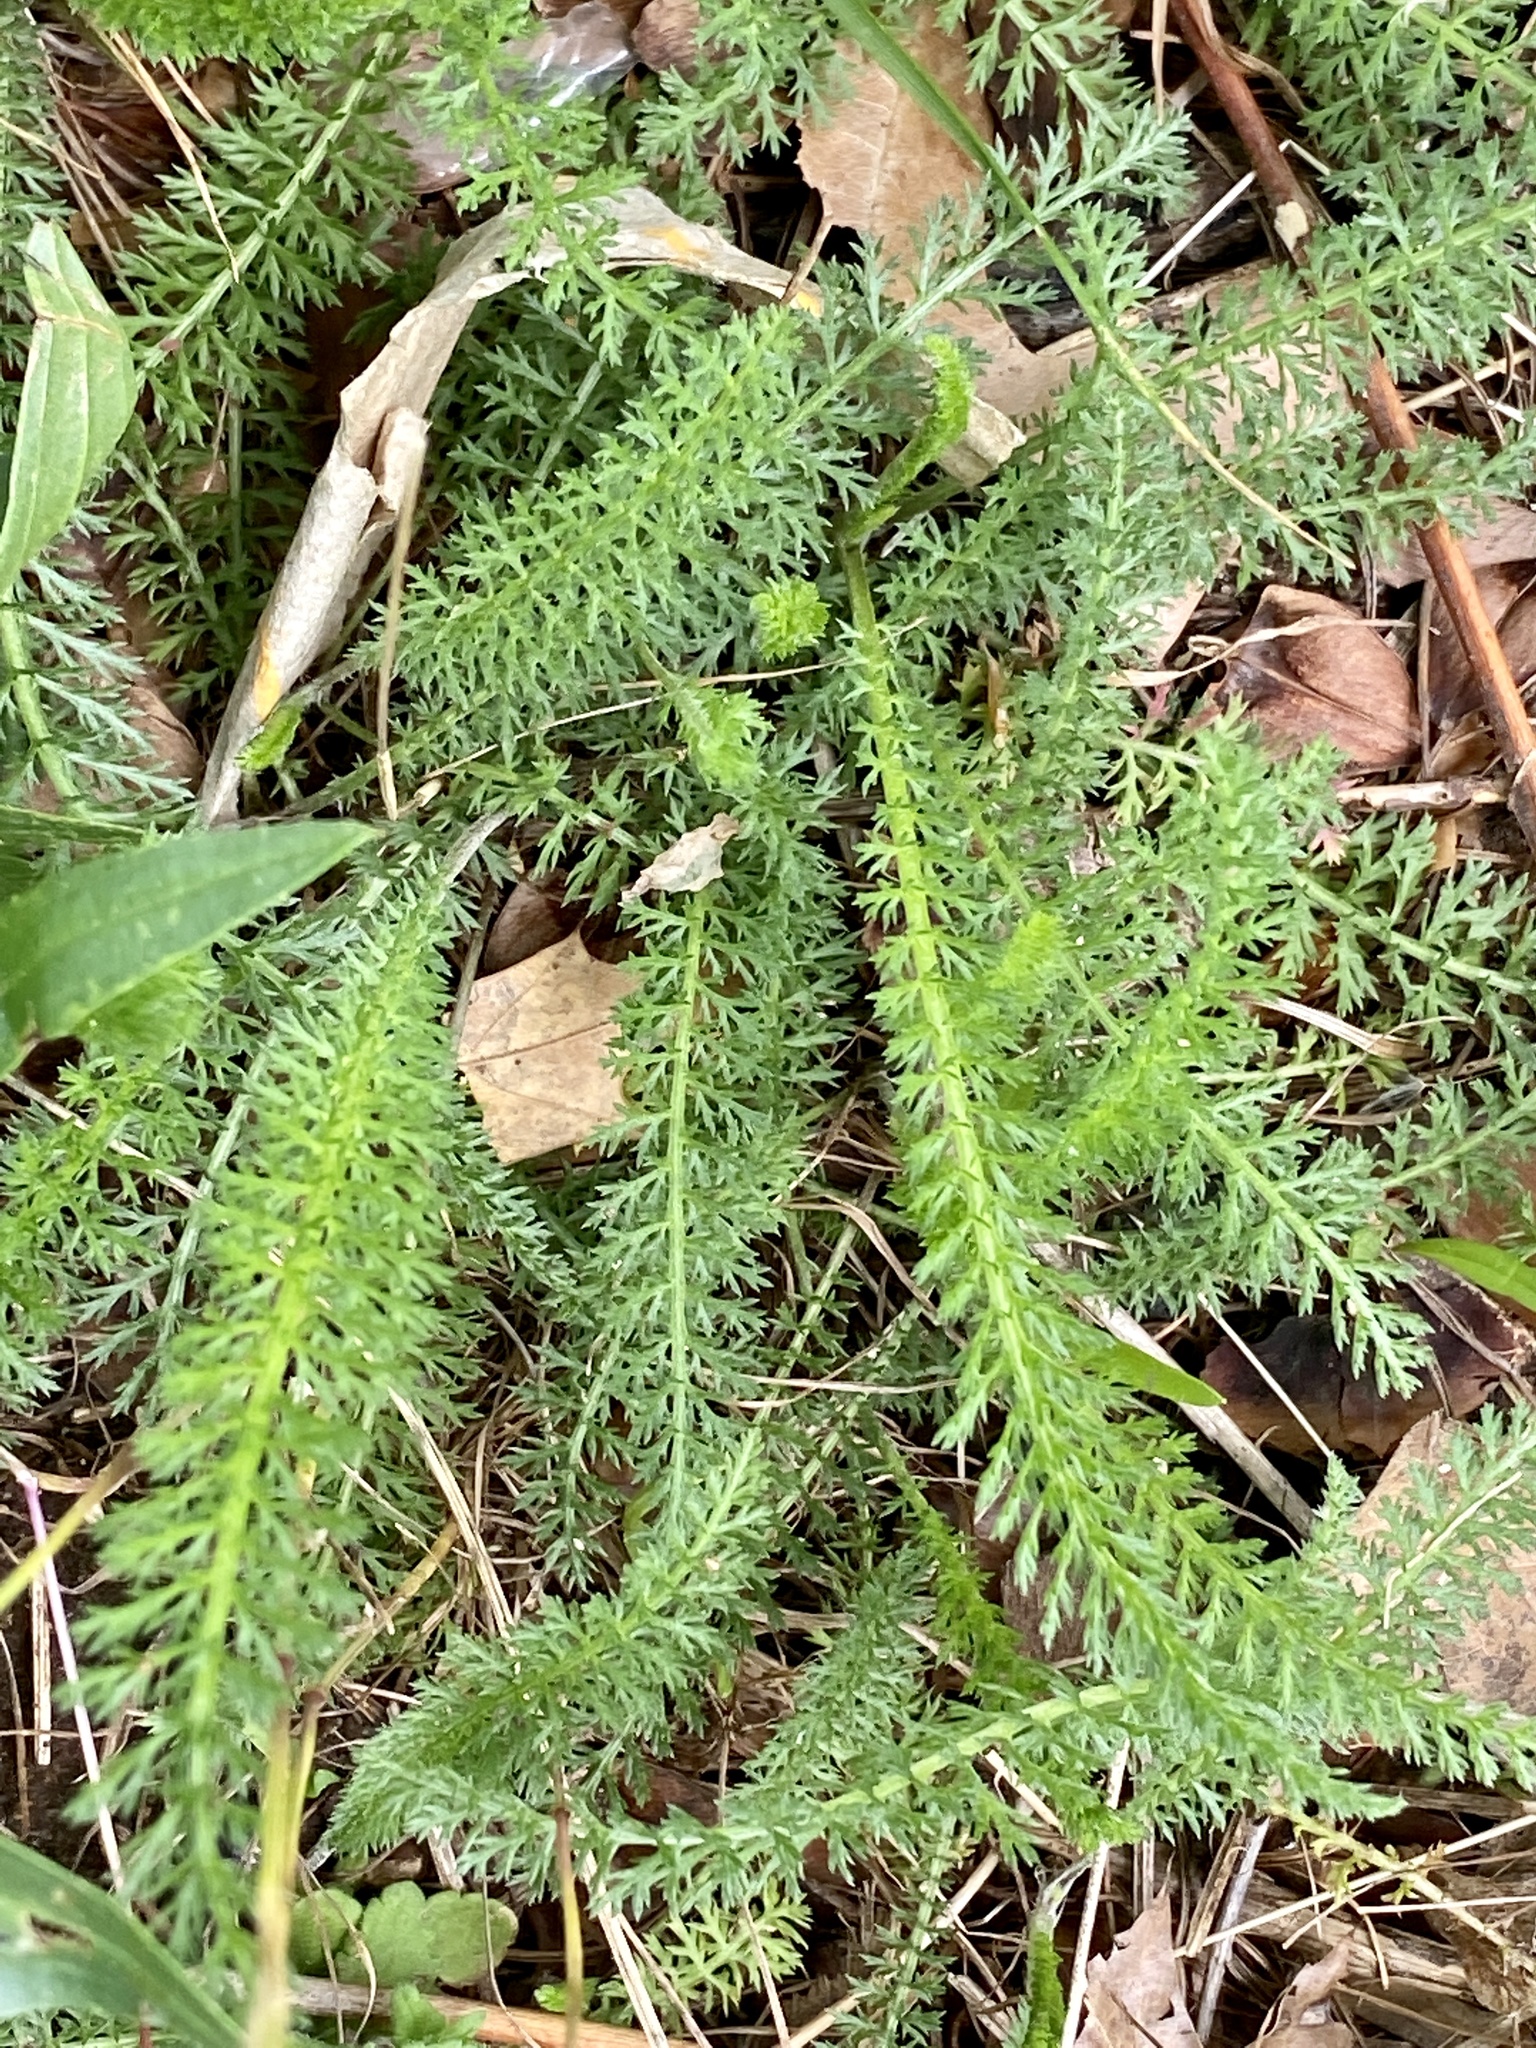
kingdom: Plantae
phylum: Tracheophyta
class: Magnoliopsida
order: Asterales
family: Asteraceae
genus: Achillea
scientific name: Achillea millefolium
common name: Yarrow
